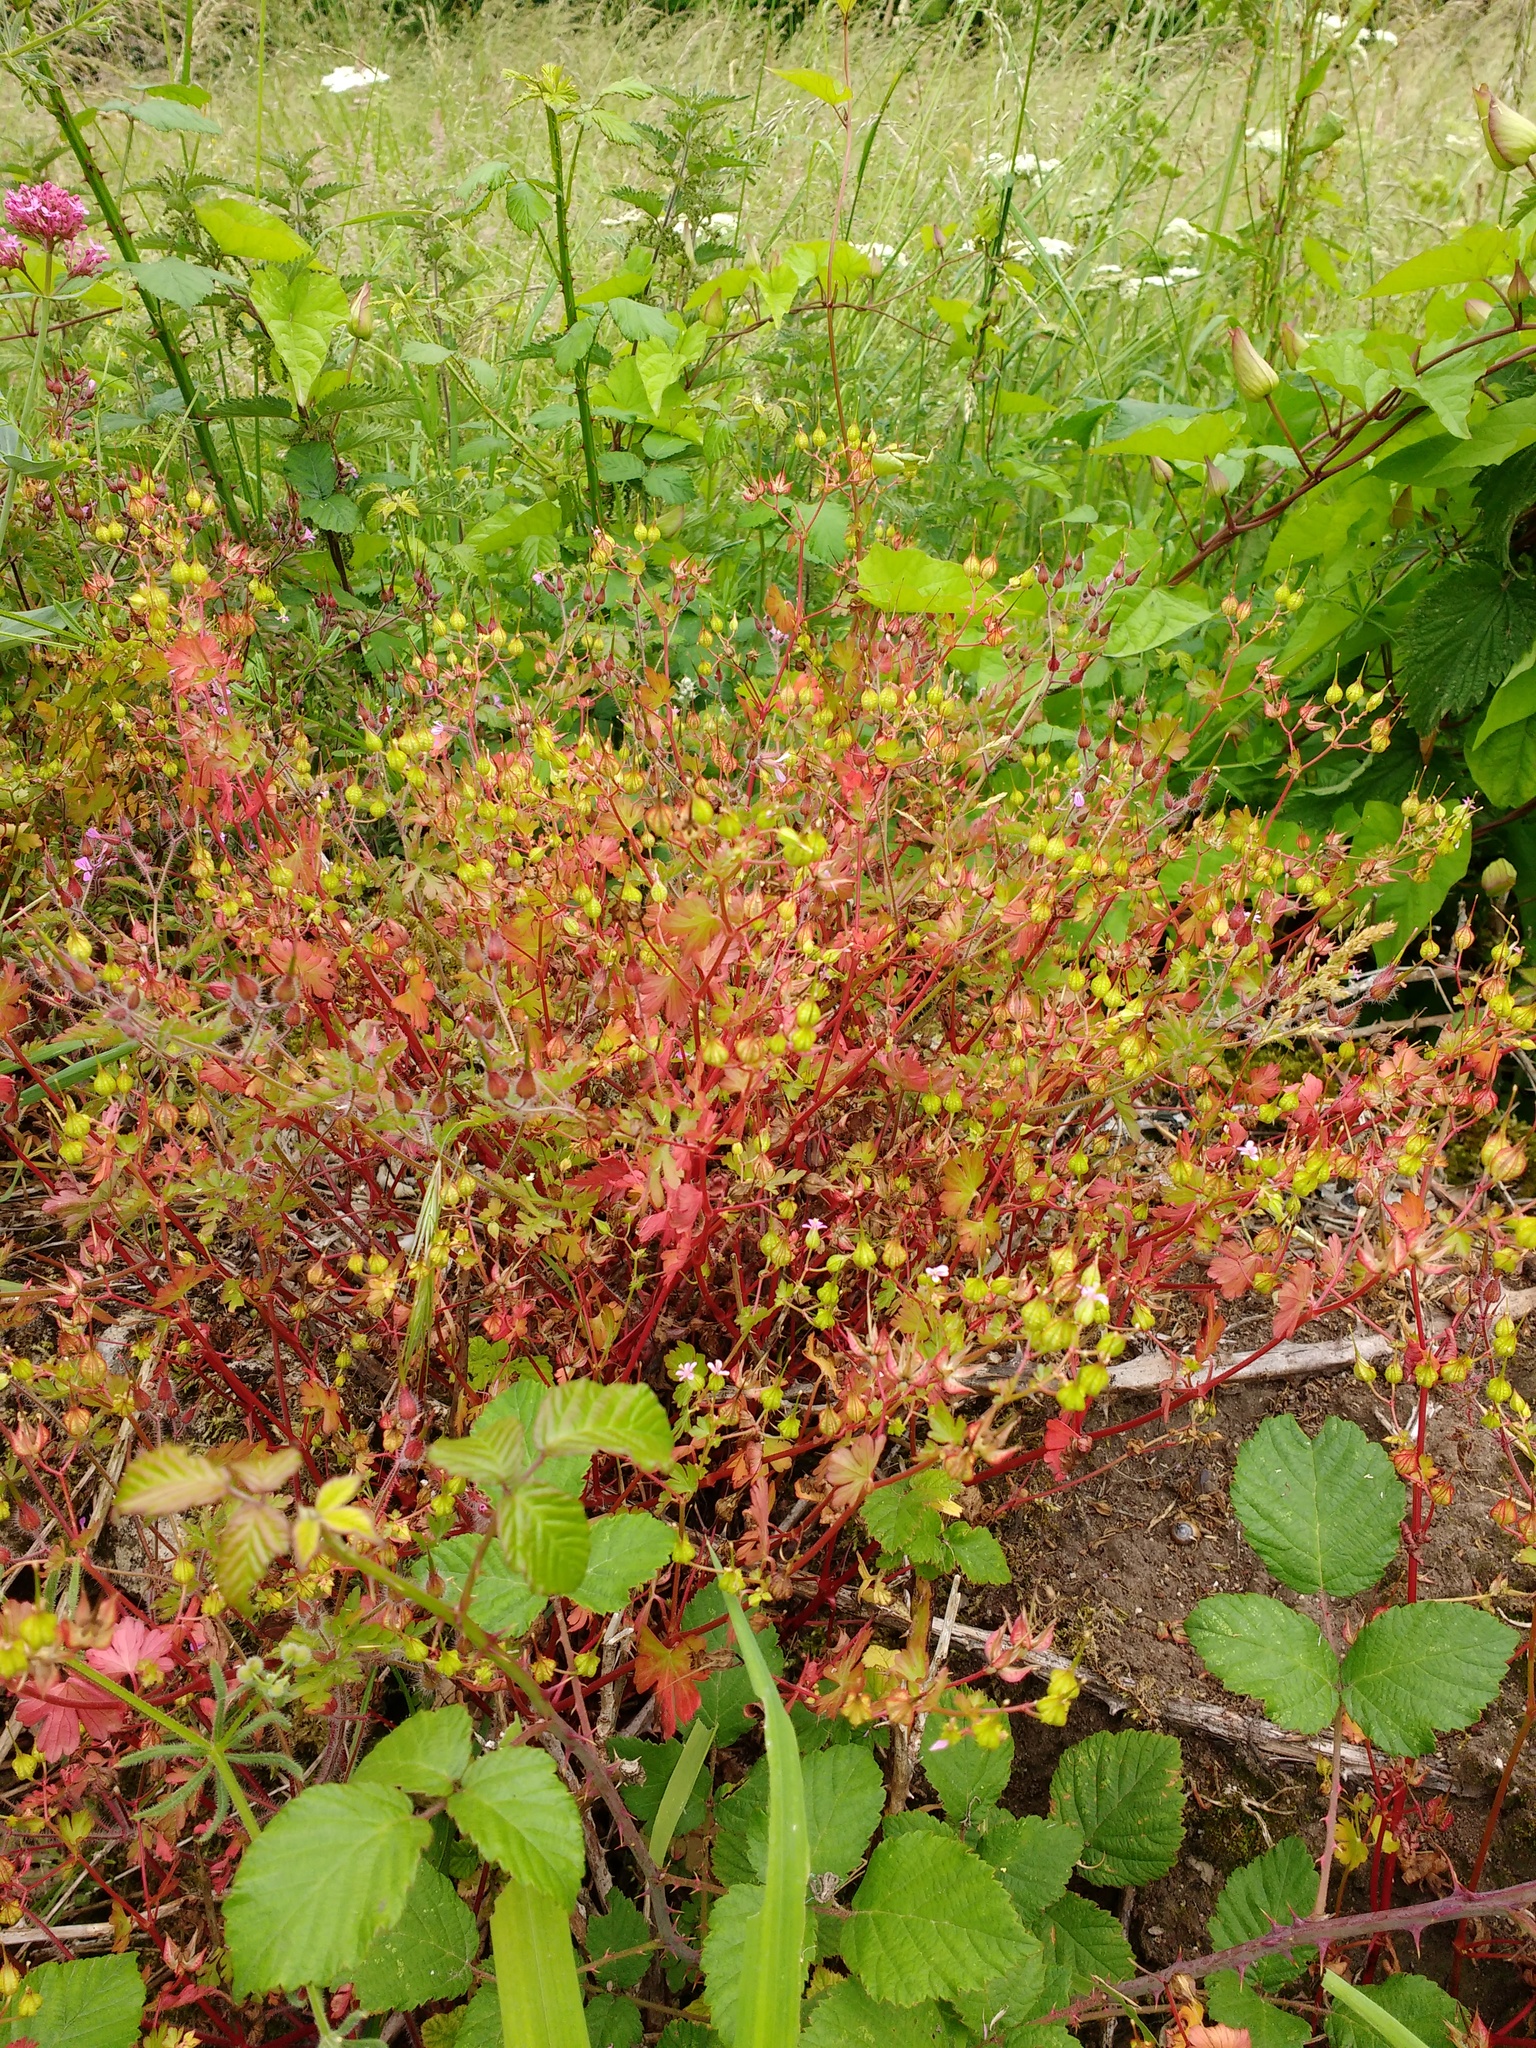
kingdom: Plantae
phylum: Tracheophyta
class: Magnoliopsida
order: Geraniales
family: Geraniaceae
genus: Geranium
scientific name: Geranium lucidum
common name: Shining crane's-bill
